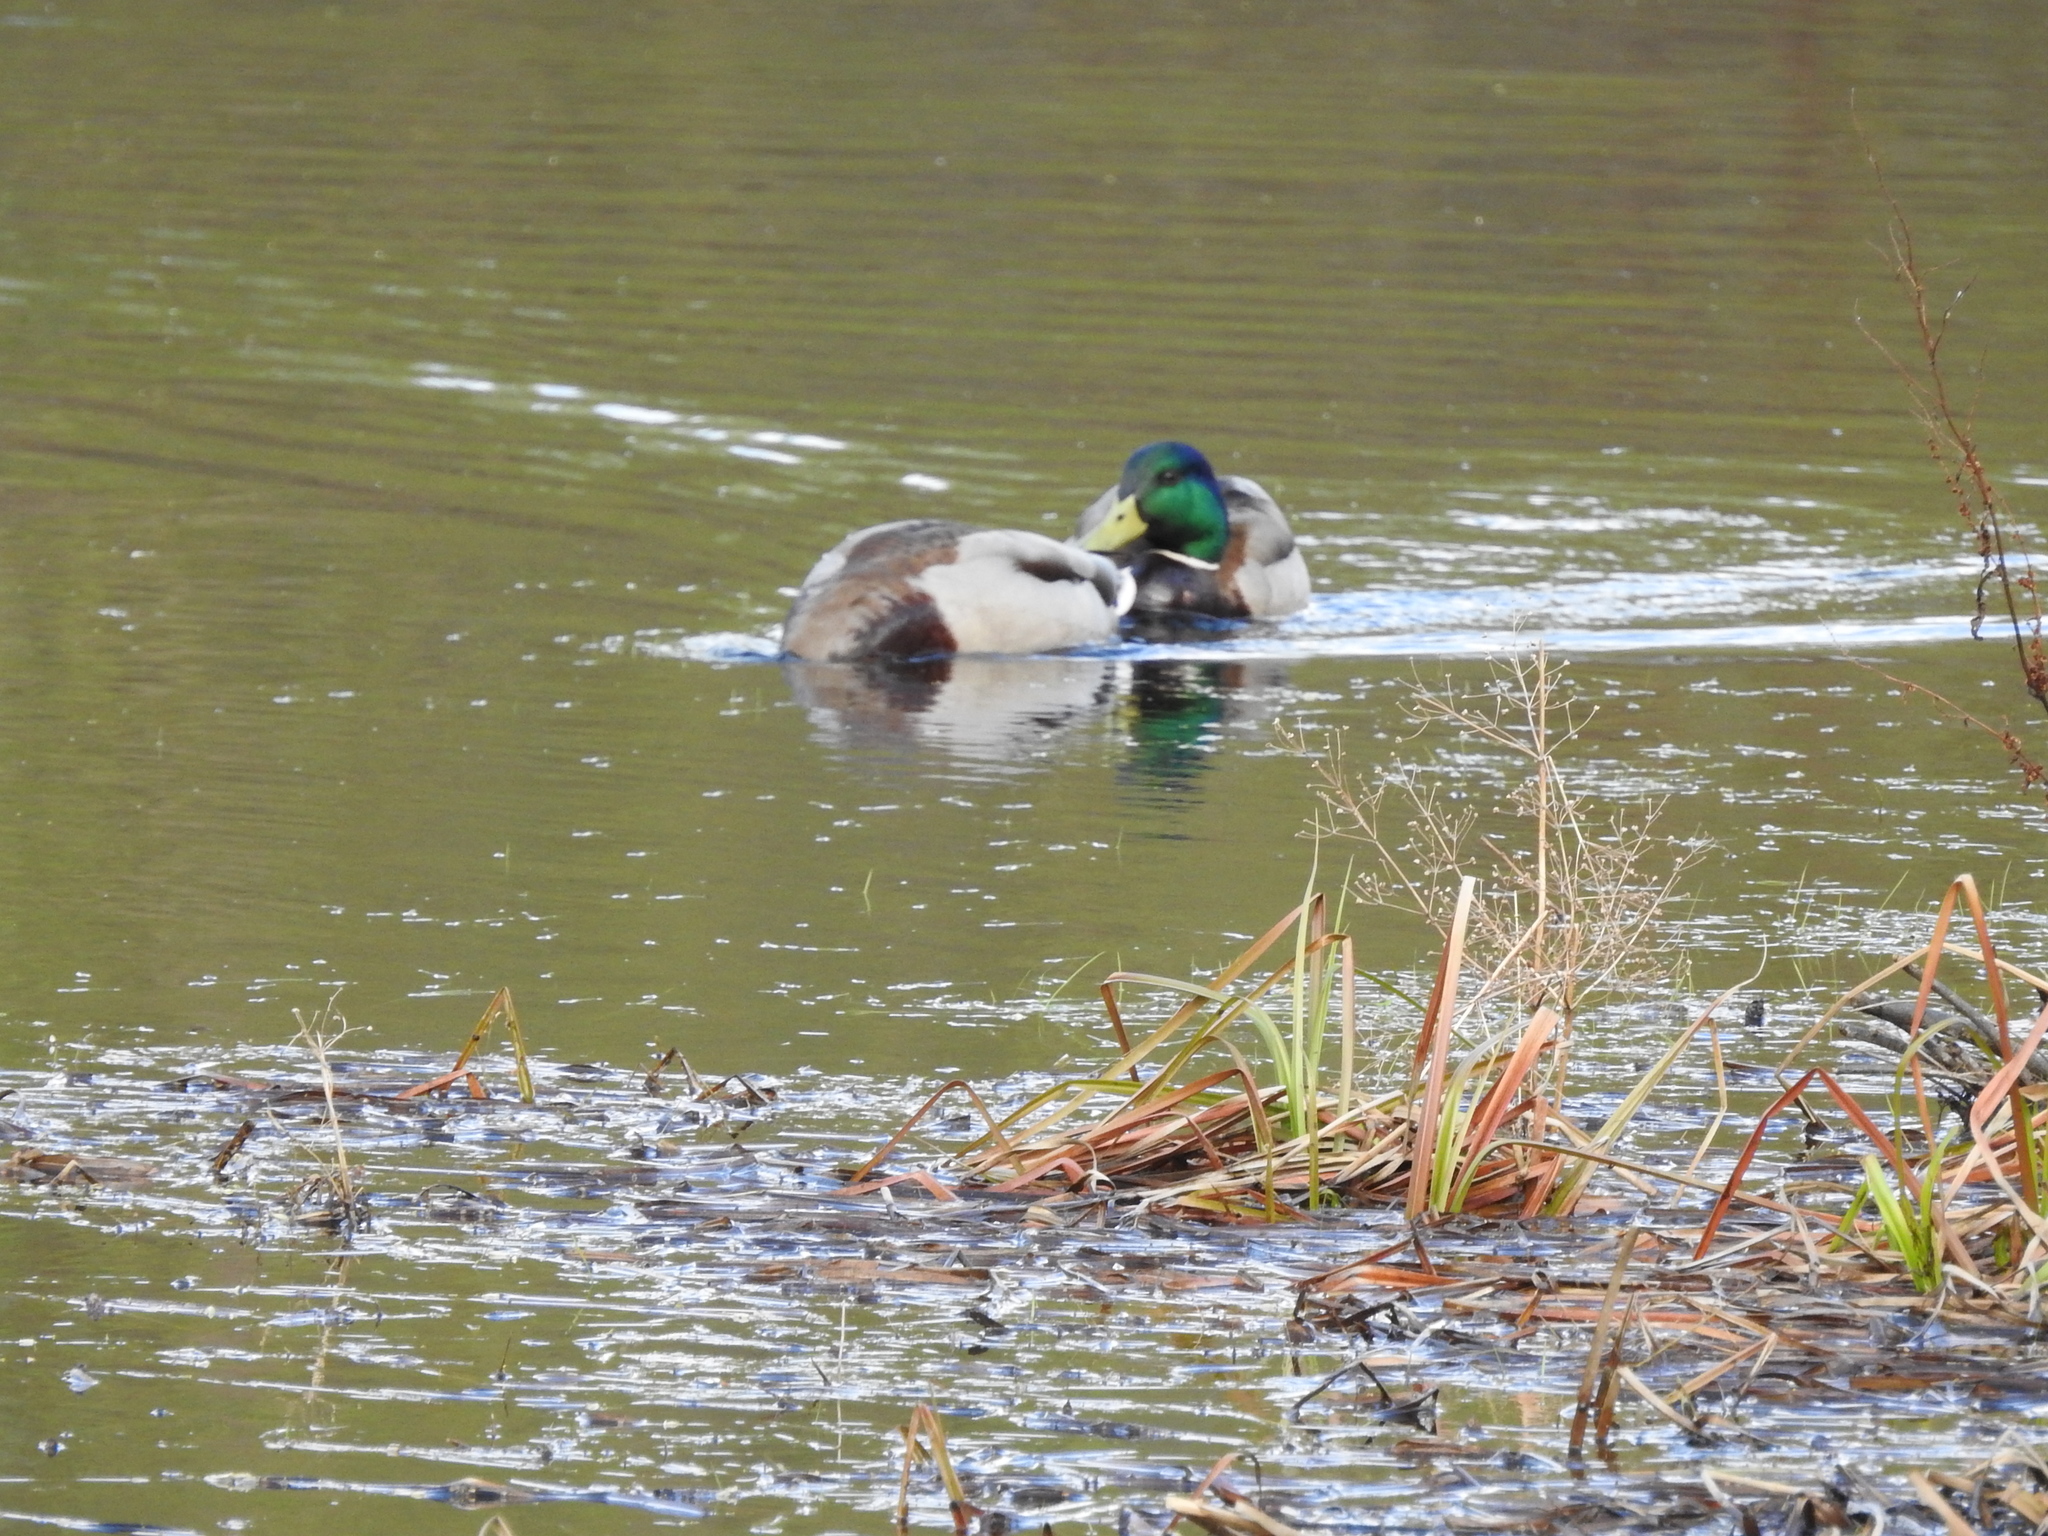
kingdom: Animalia
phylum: Chordata
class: Aves
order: Anseriformes
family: Anatidae
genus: Anas
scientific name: Anas platyrhynchos
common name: Mallard
